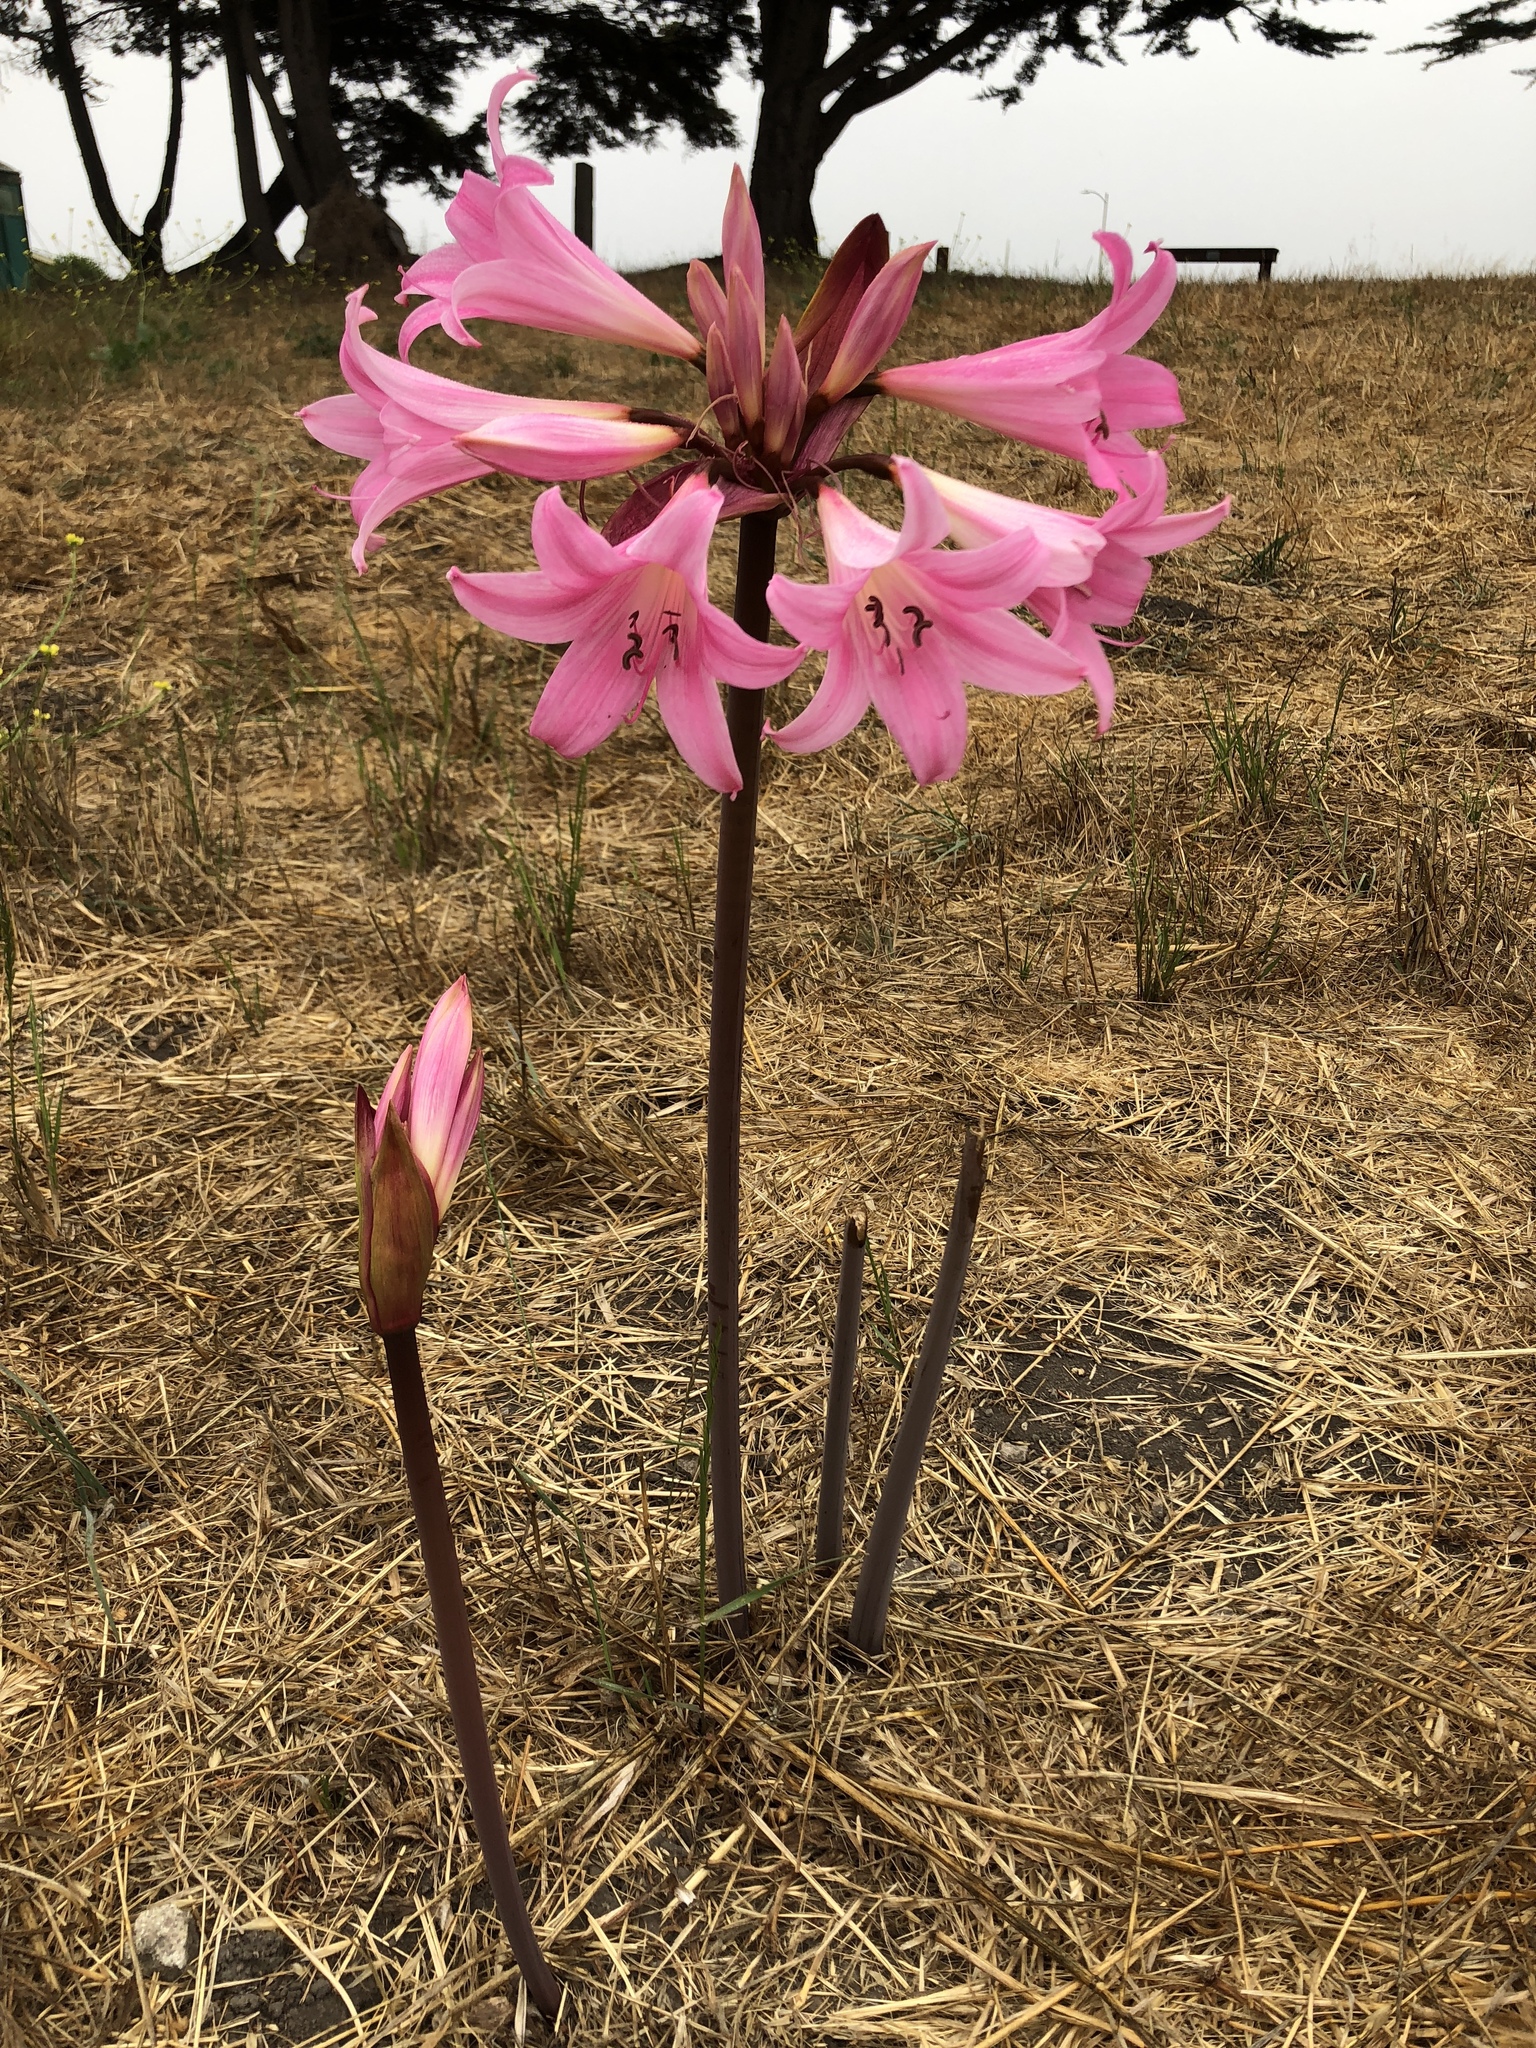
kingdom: Plantae
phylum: Tracheophyta
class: Liliopsida
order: Asparagales
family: Amaryllidaceae
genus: Amaryllis
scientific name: Amaryllis belladonna
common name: Jersey lily
